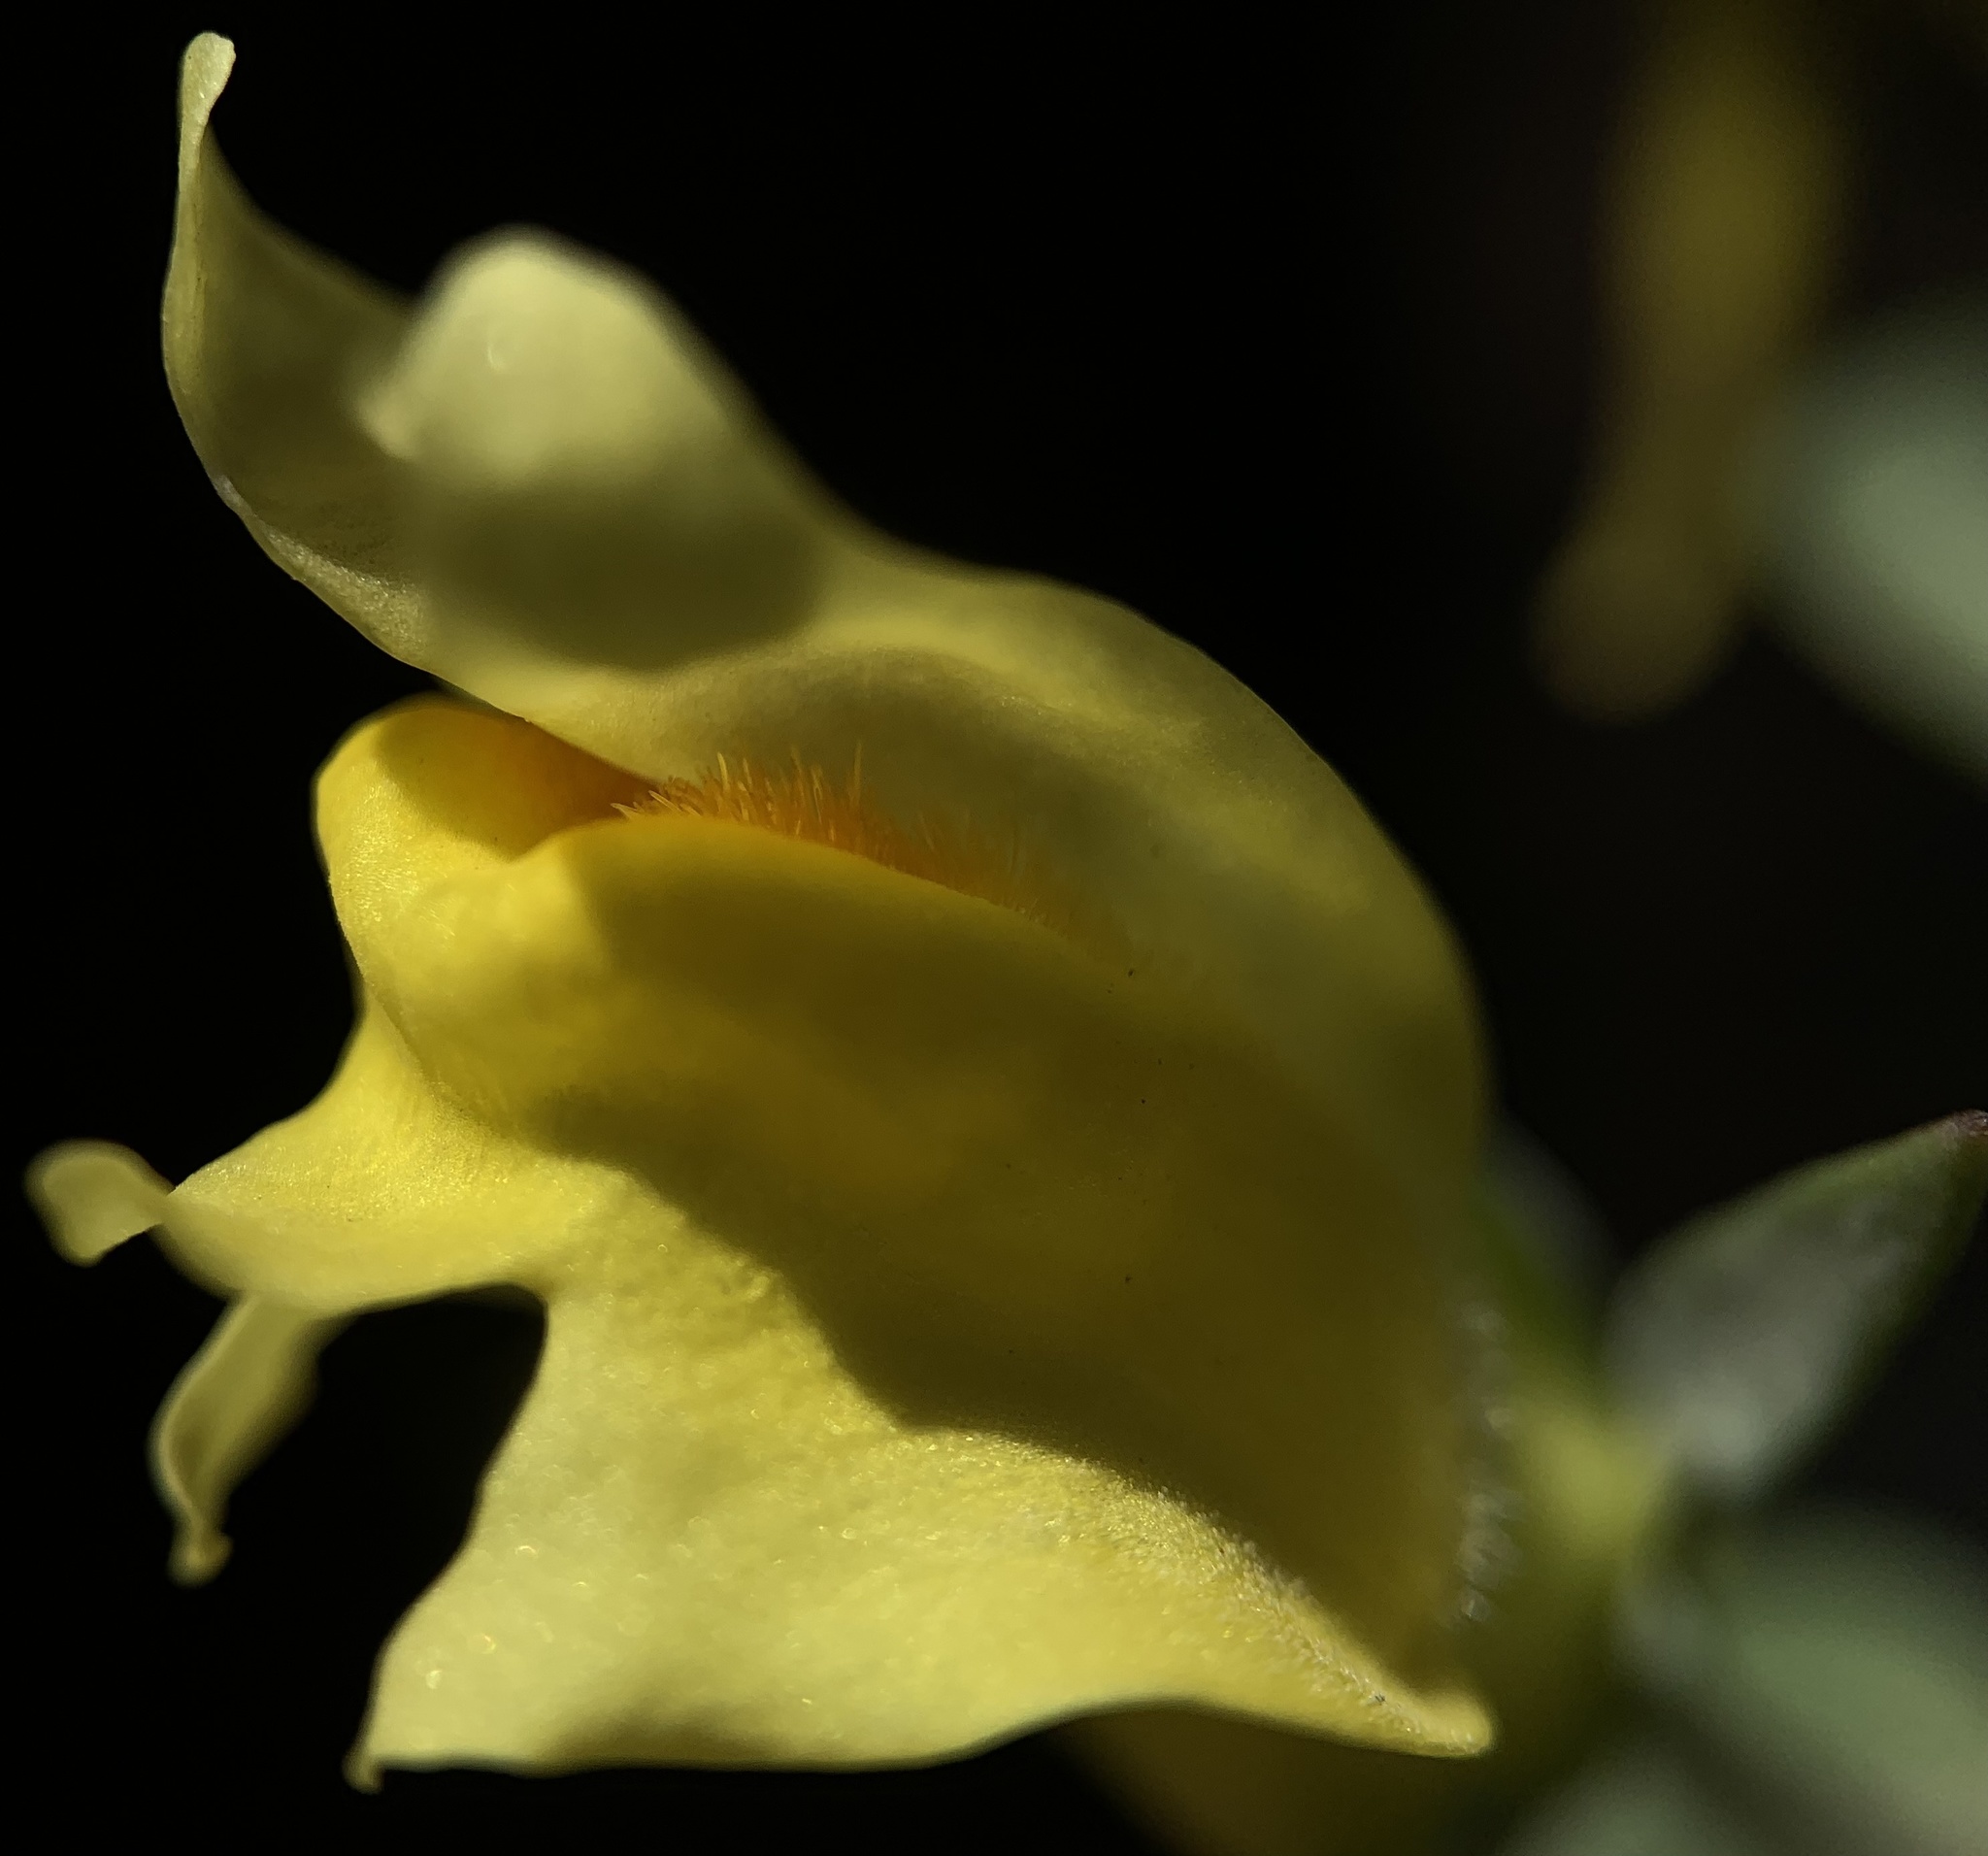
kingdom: Plantae
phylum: Tracheophyta
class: Magnoliopsida
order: Lamiales
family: Plantaginaceae
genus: Linaria
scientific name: Linaria dalmatica
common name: Dalmatian toadflax
